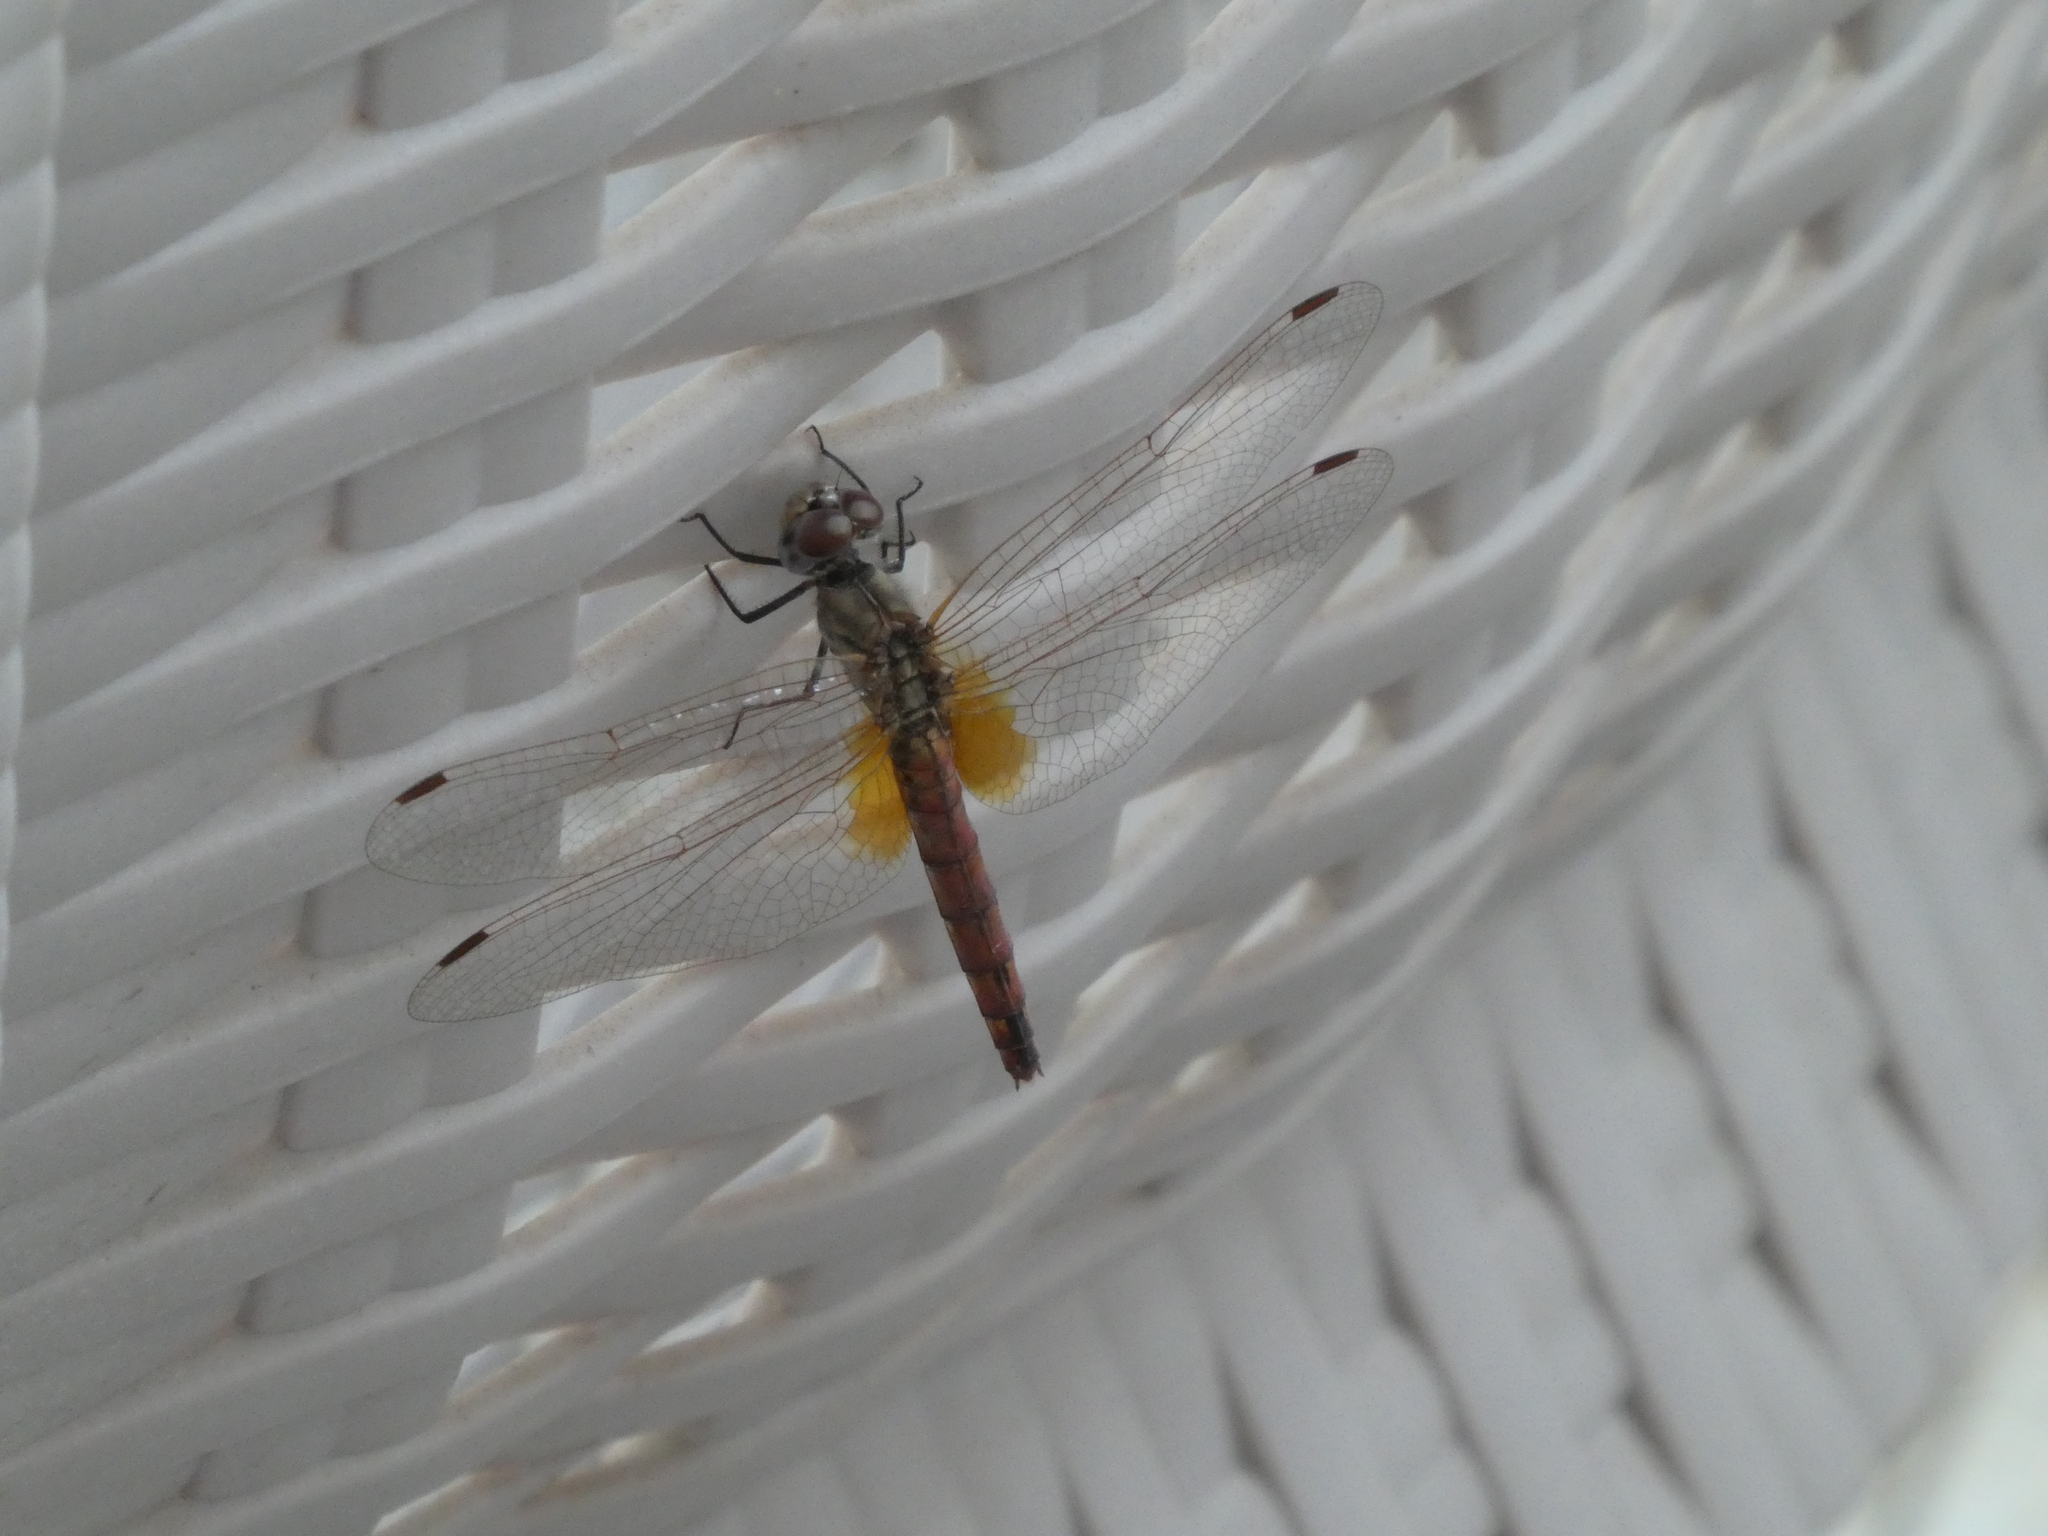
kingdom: Animalia
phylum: Arthropoda
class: Insecta
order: Odonata
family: Libellulidae
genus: Trithemis
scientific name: Trithemis annulata
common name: Violet dropwing
